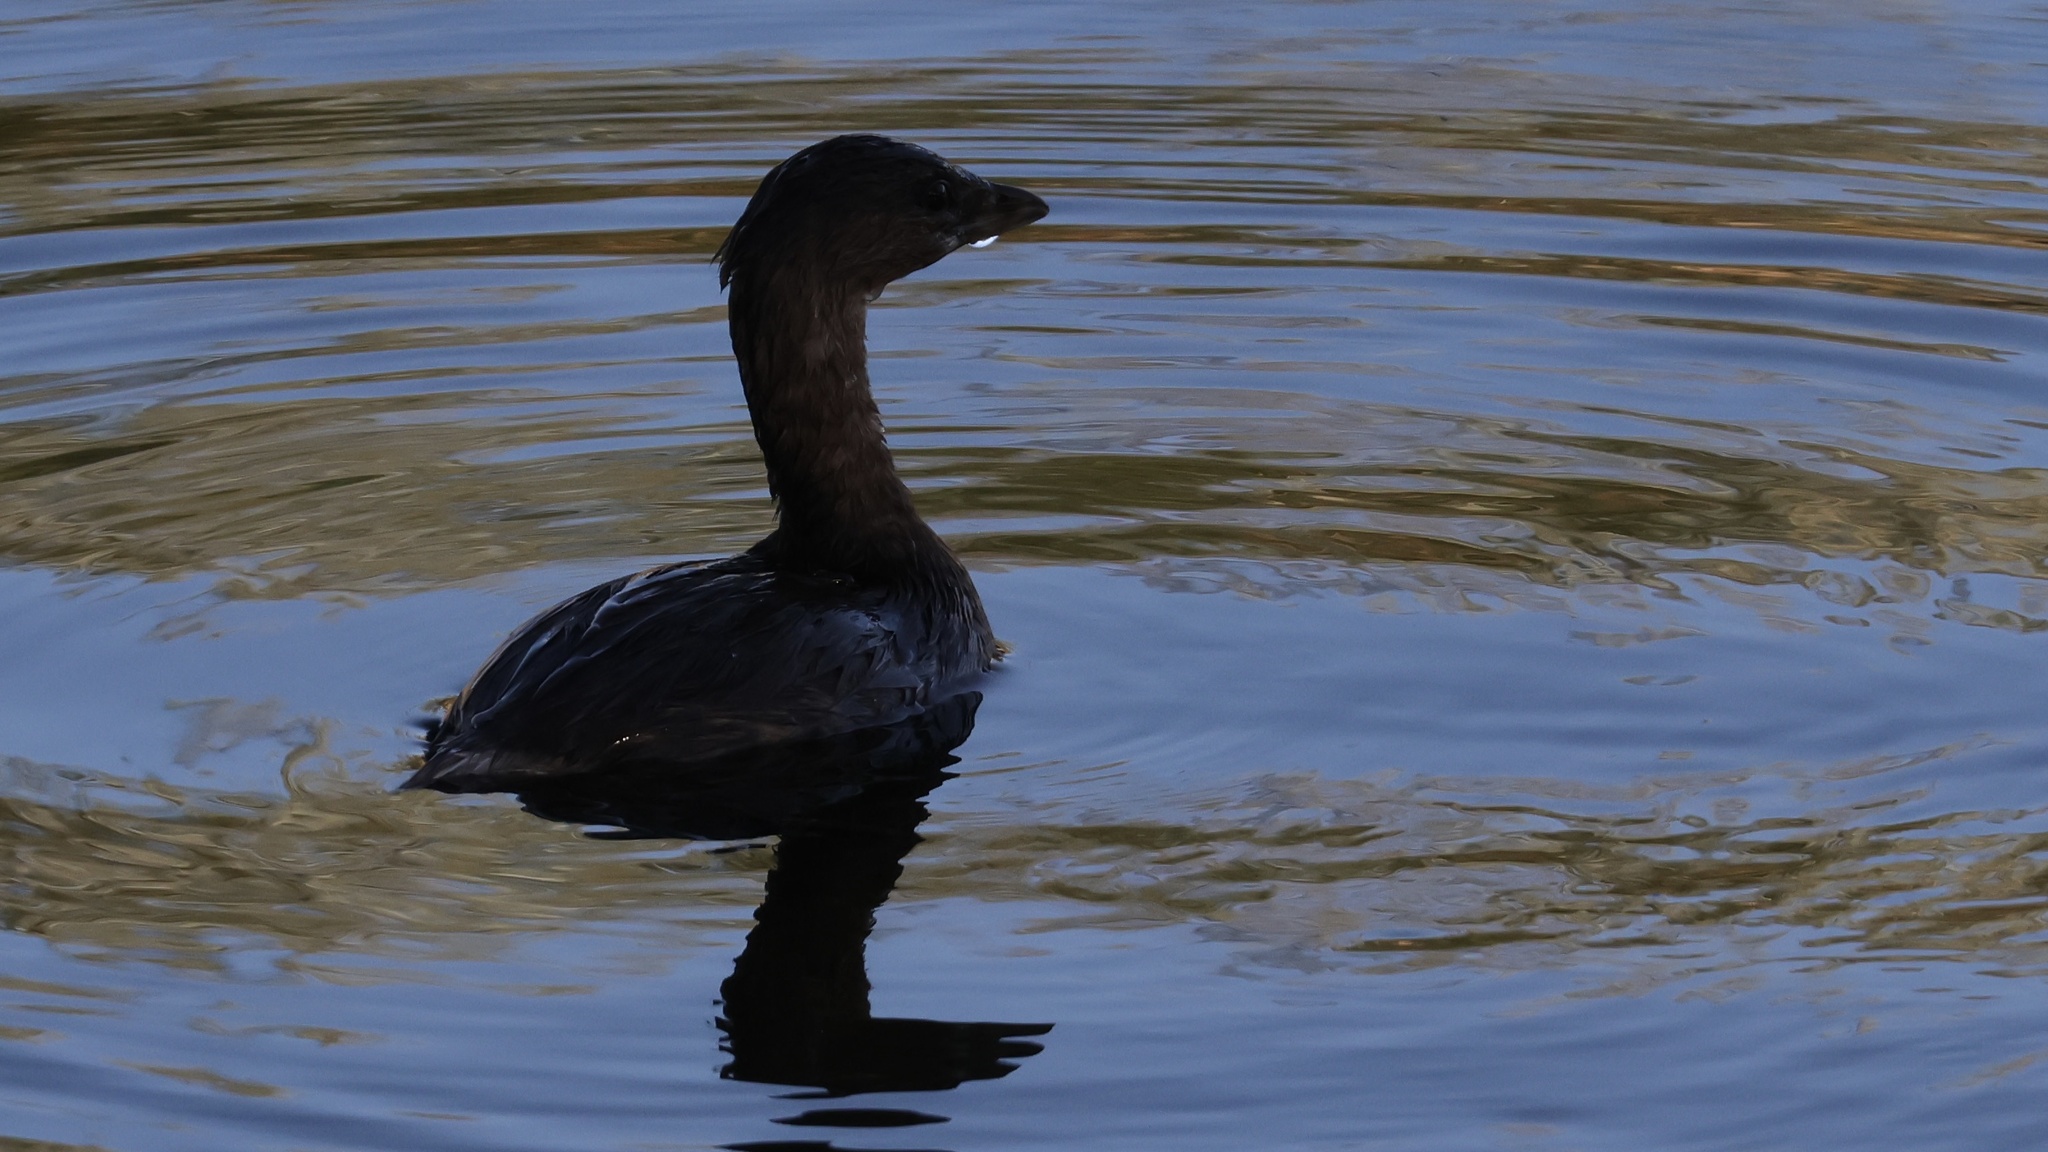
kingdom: Animalia
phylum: Chordata
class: Aves
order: Podicipediformes
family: Podicipedidae
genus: Podilymbus
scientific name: Podilymbus podiceps
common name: Pied-billed grebe
